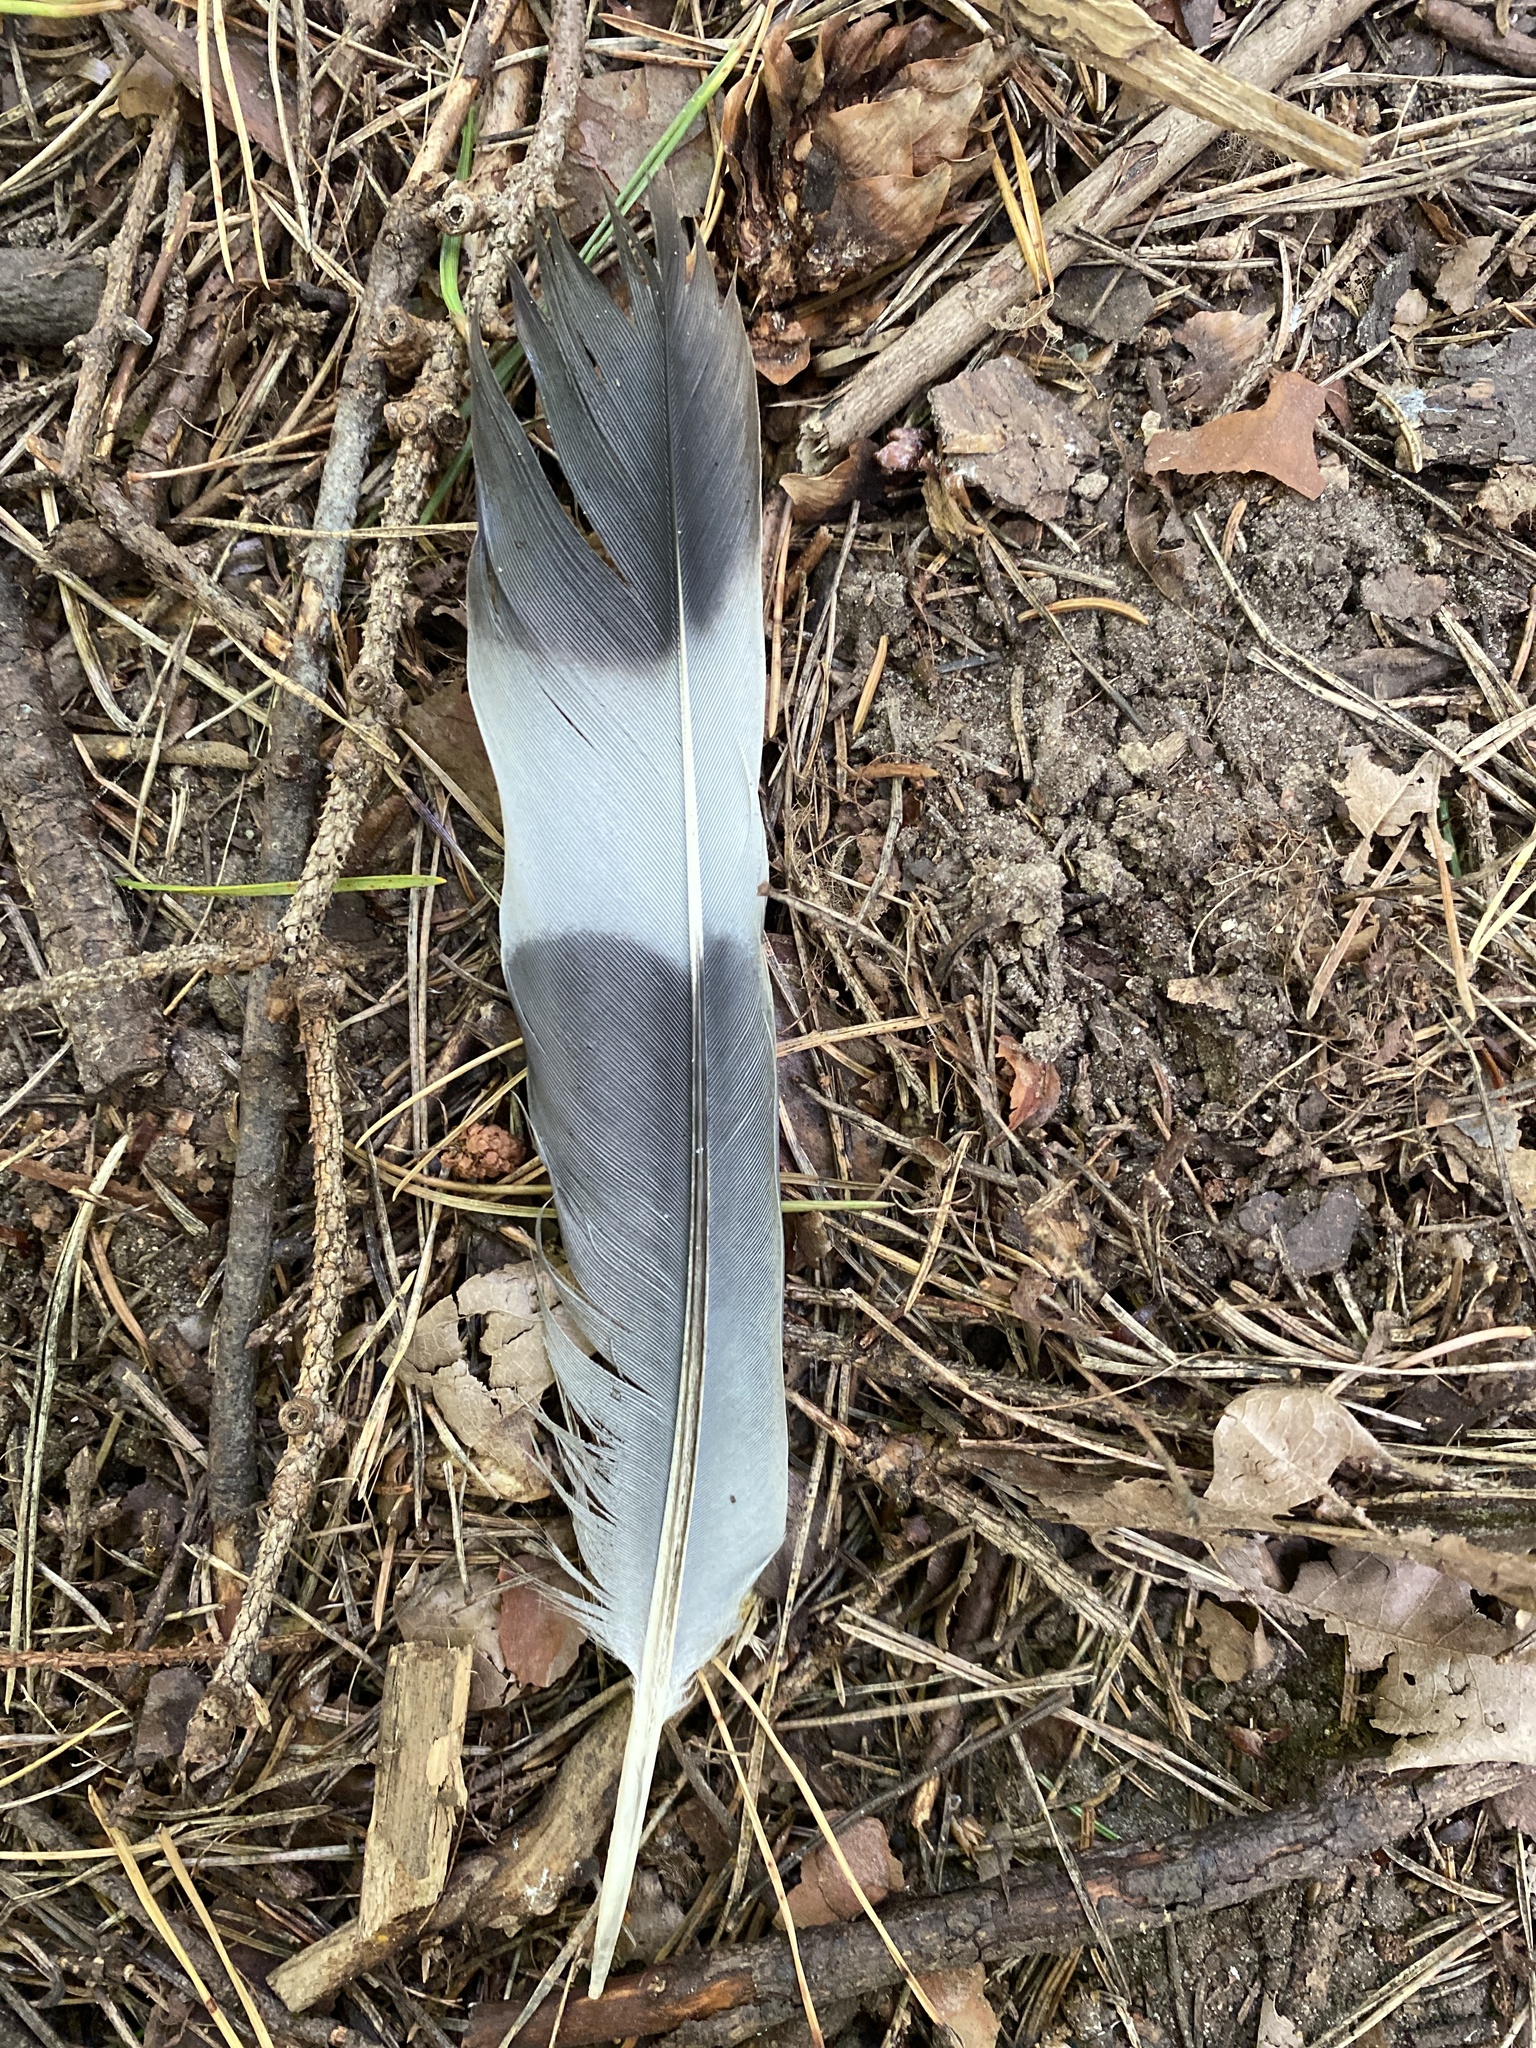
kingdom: Animalia
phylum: Chordata
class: Aves
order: Columbiformes
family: Columbidae
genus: Columba
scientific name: Columba palumbus
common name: Common wood pigeon
